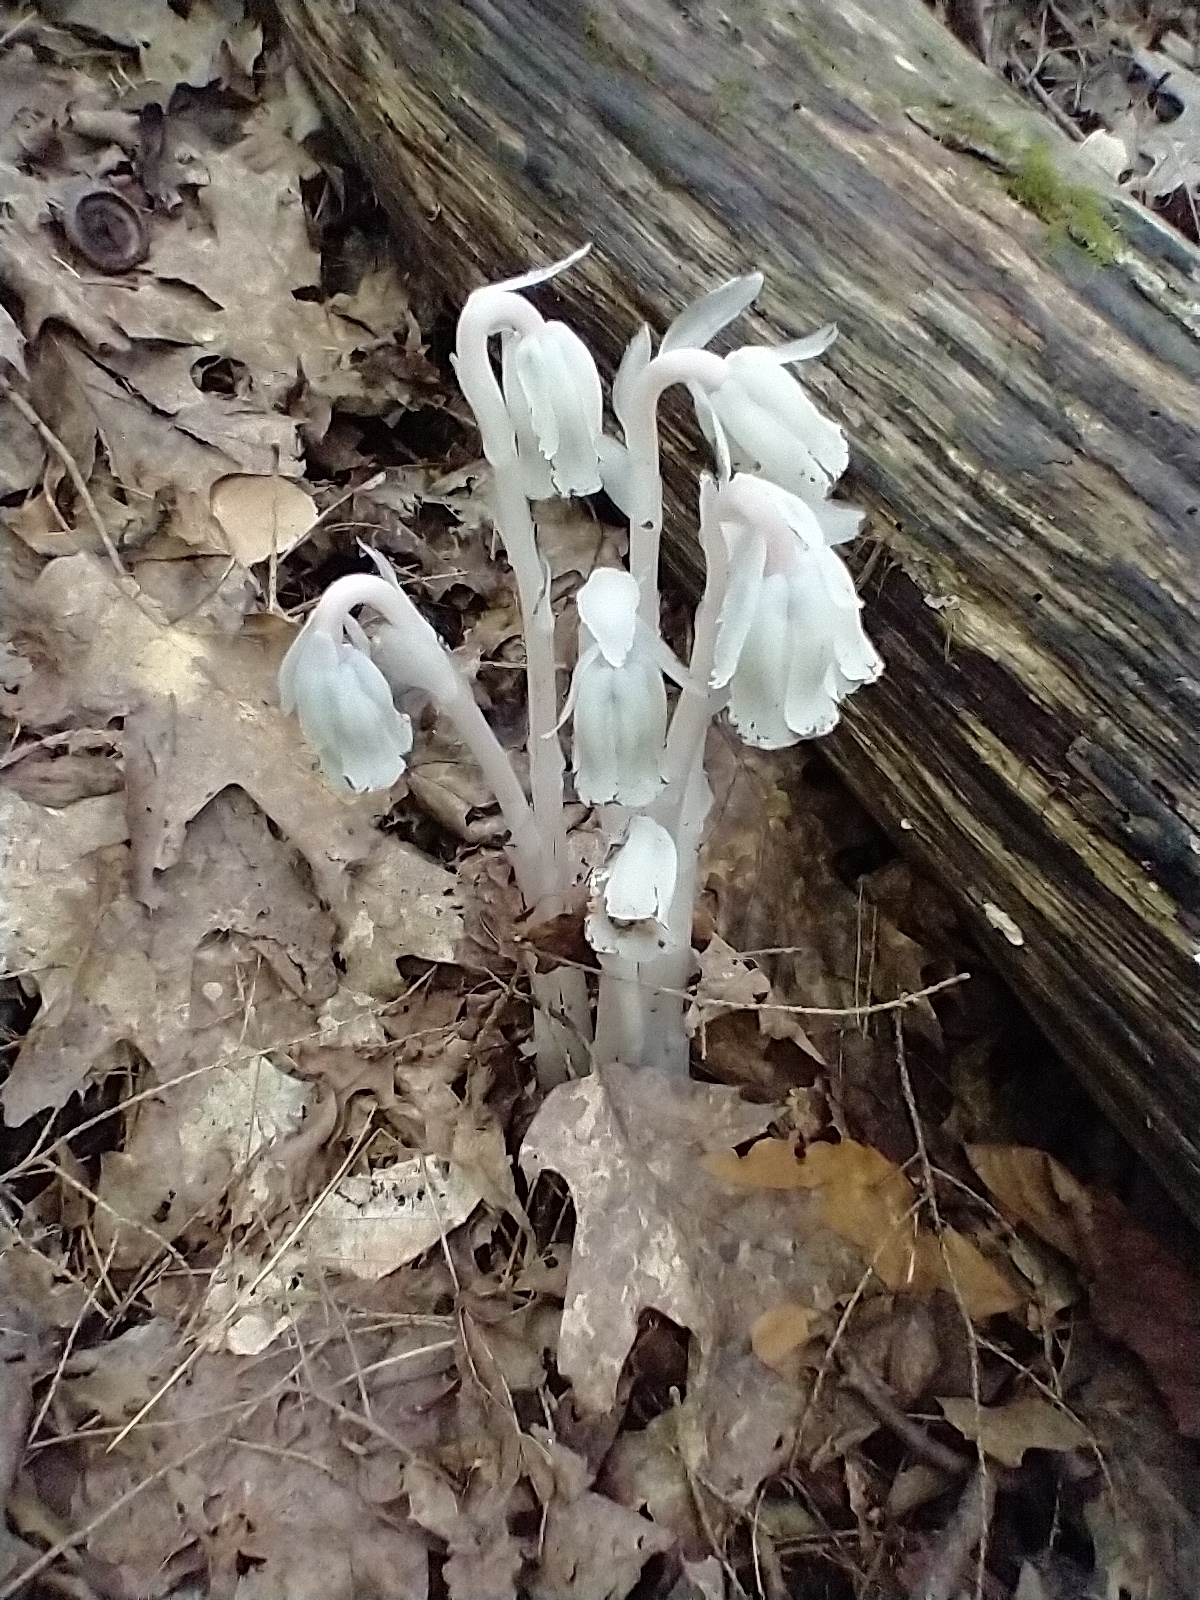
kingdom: Plantae
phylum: Tracheophyta
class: Magnoliopsida
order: Ericales
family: Ericaceae
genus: Monotropa
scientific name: Monotropa uniflora
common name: Convulsion root
